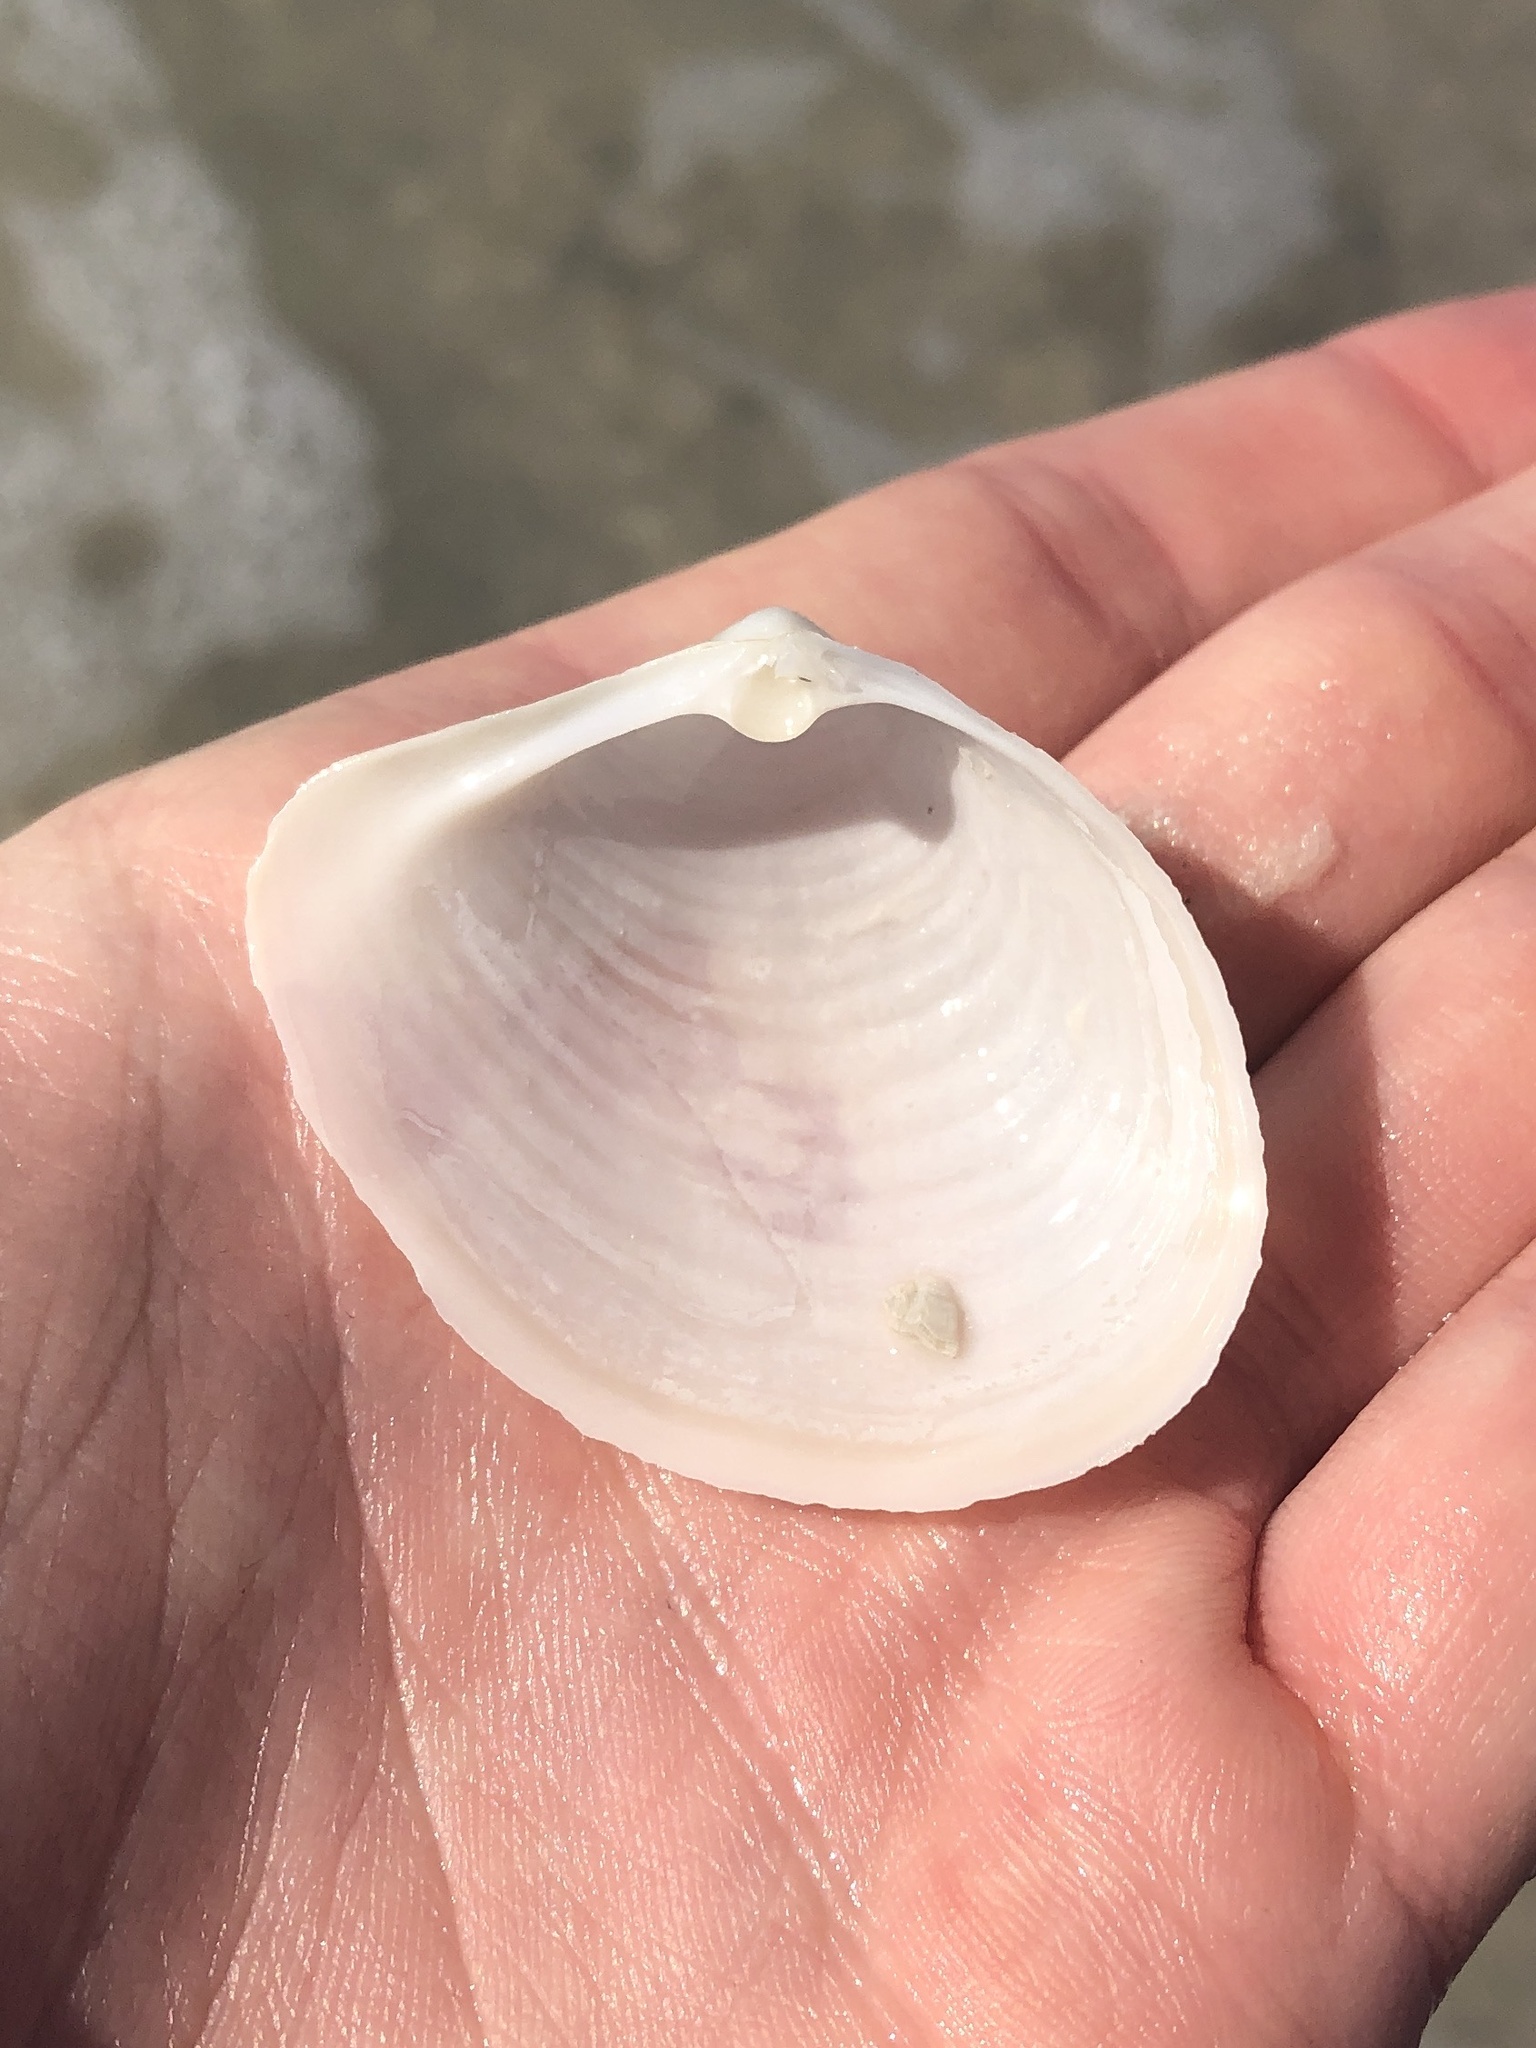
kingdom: Animalia
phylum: Mollusca
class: Bivalvia
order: Venerida
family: Anatinellidae
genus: Raeta
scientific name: Raeta plicatella
